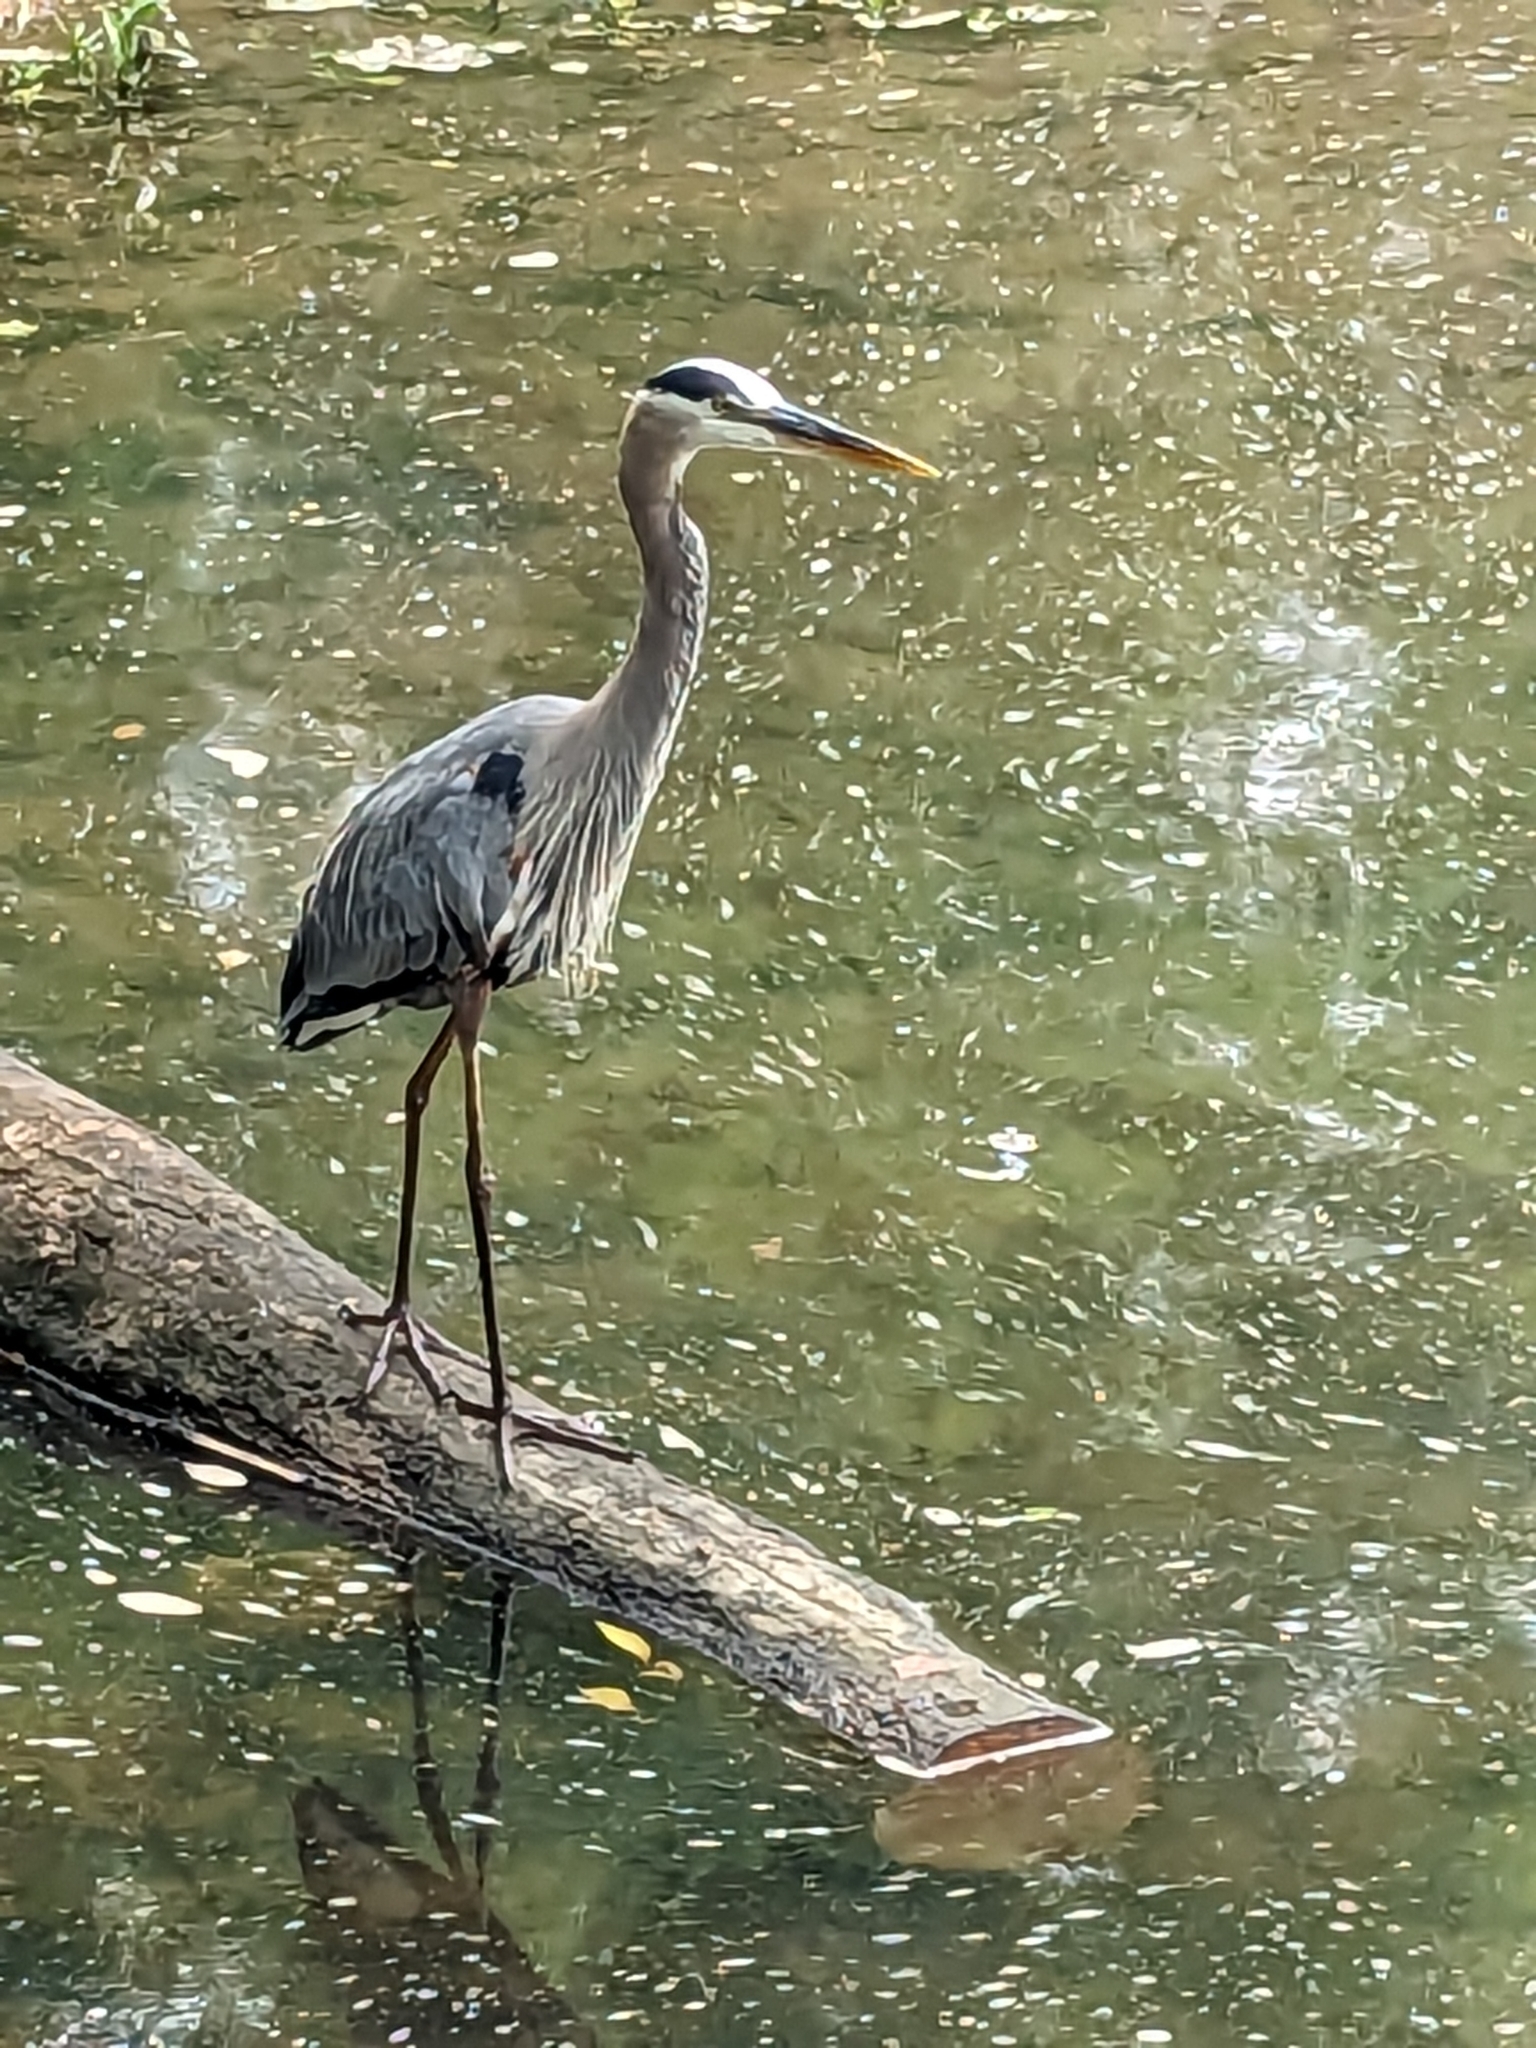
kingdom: Animalia
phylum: Chordata
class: Aves
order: Pelecaniformes
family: Ardeidae
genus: Ardea
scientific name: Ardea herodias
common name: Great blue heron
